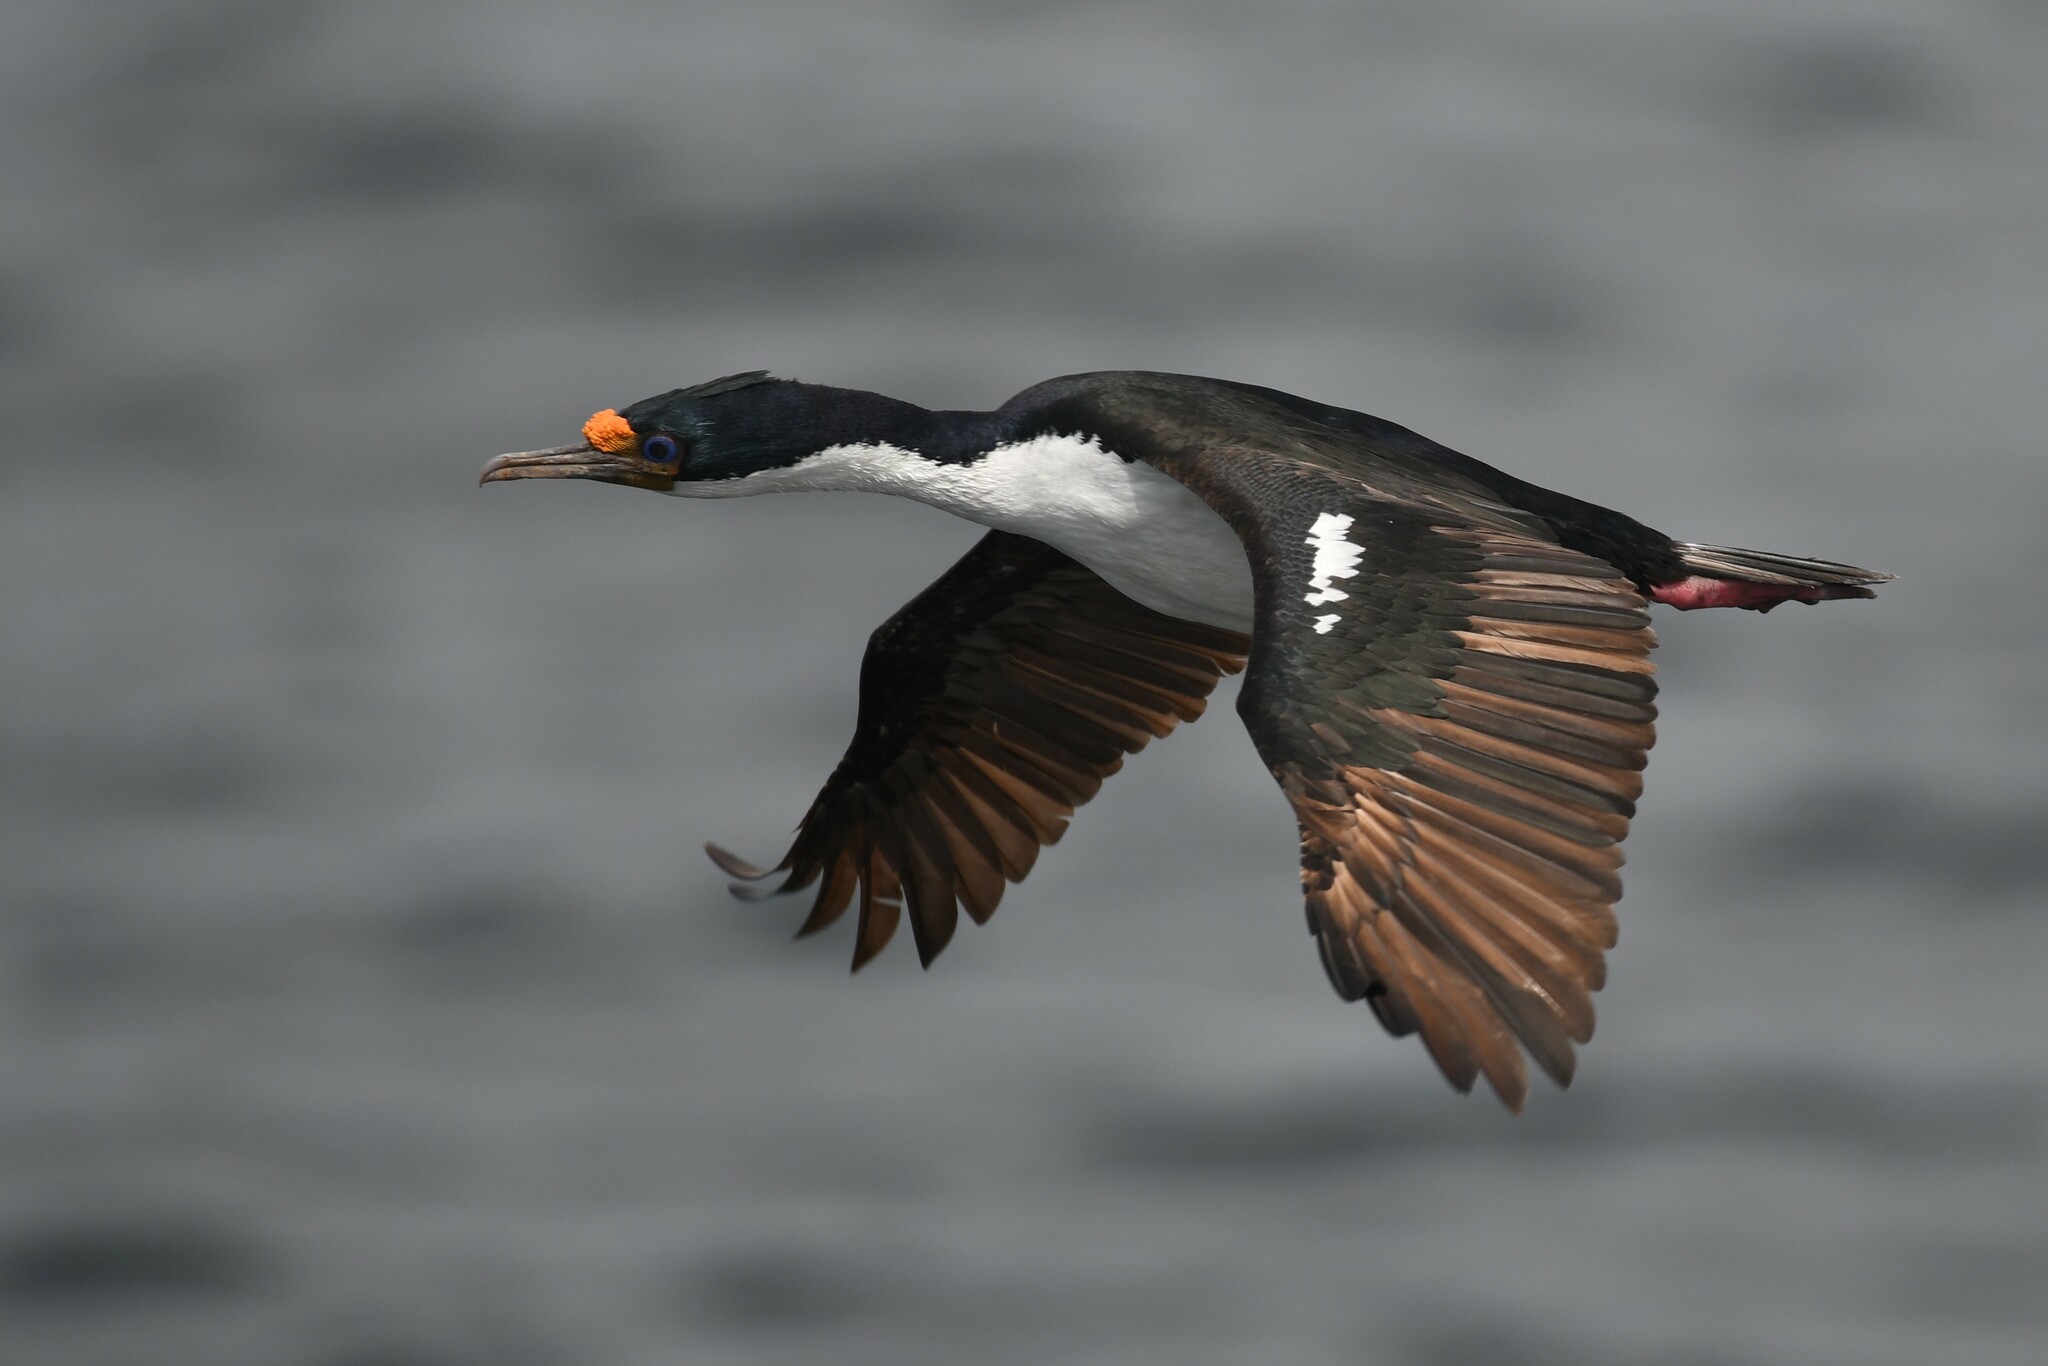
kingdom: Animalia
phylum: Chordata
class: Aves
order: Suliformes
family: Phalacrocoracidae
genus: Leucocarbo
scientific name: Leucocarbo atriceps
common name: Imperial shag
